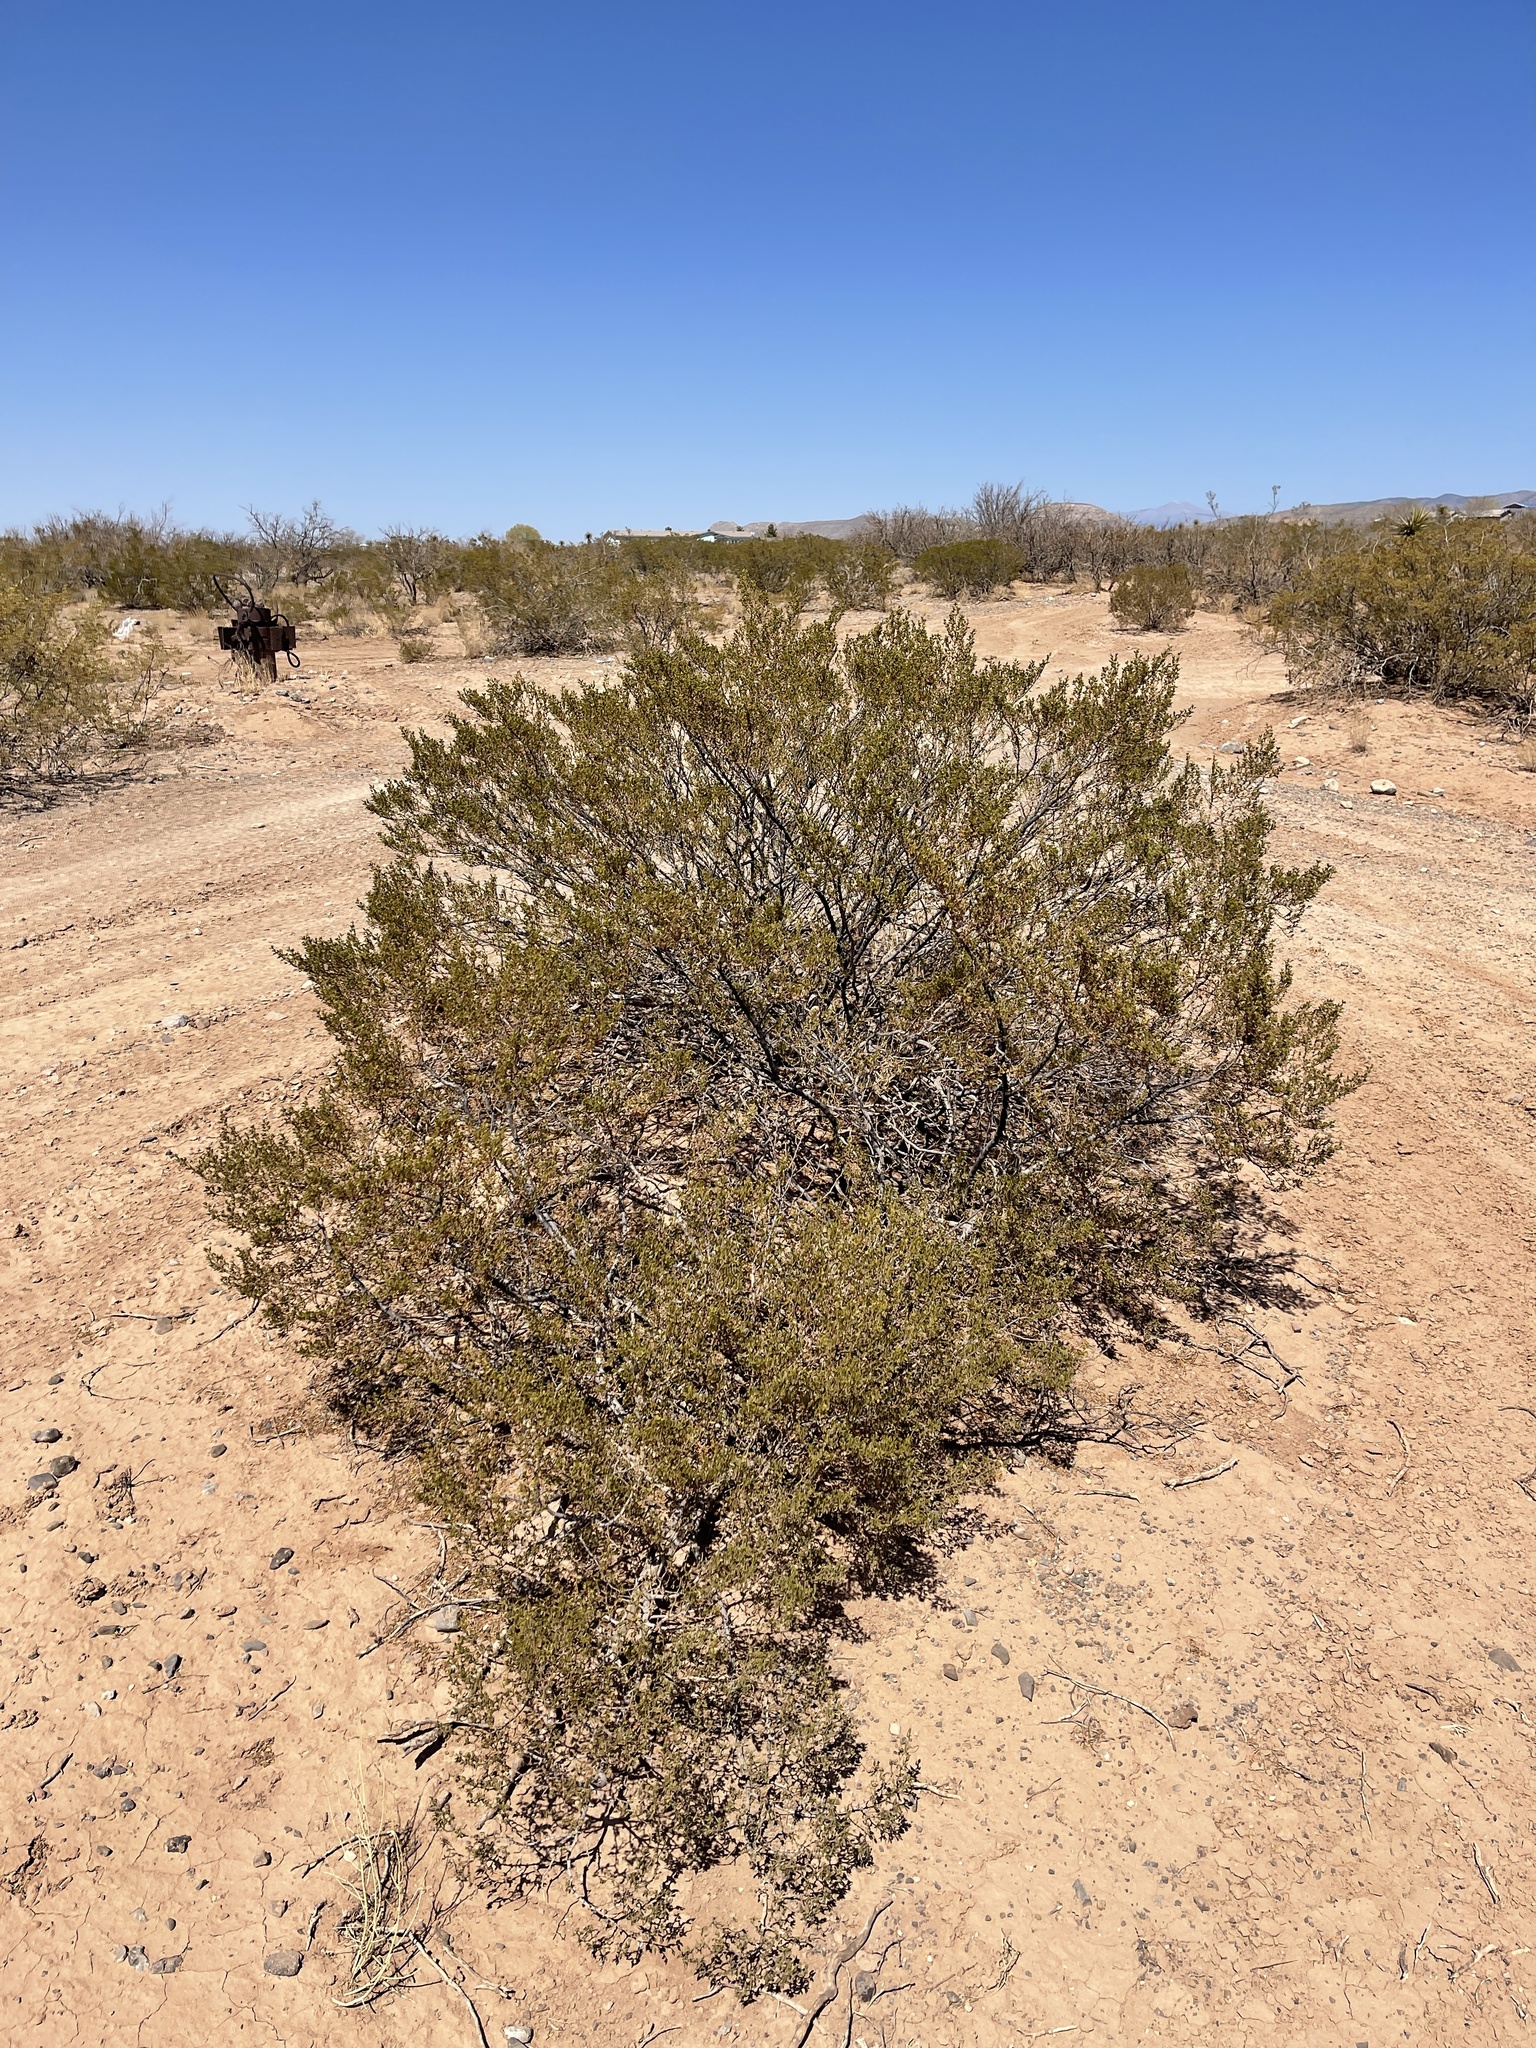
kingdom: Plantae
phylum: Tracheophyta
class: Magnoliopsida
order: Zygophyllales
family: Zygophyllaceae
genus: Larrea
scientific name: Larrea tridentata
